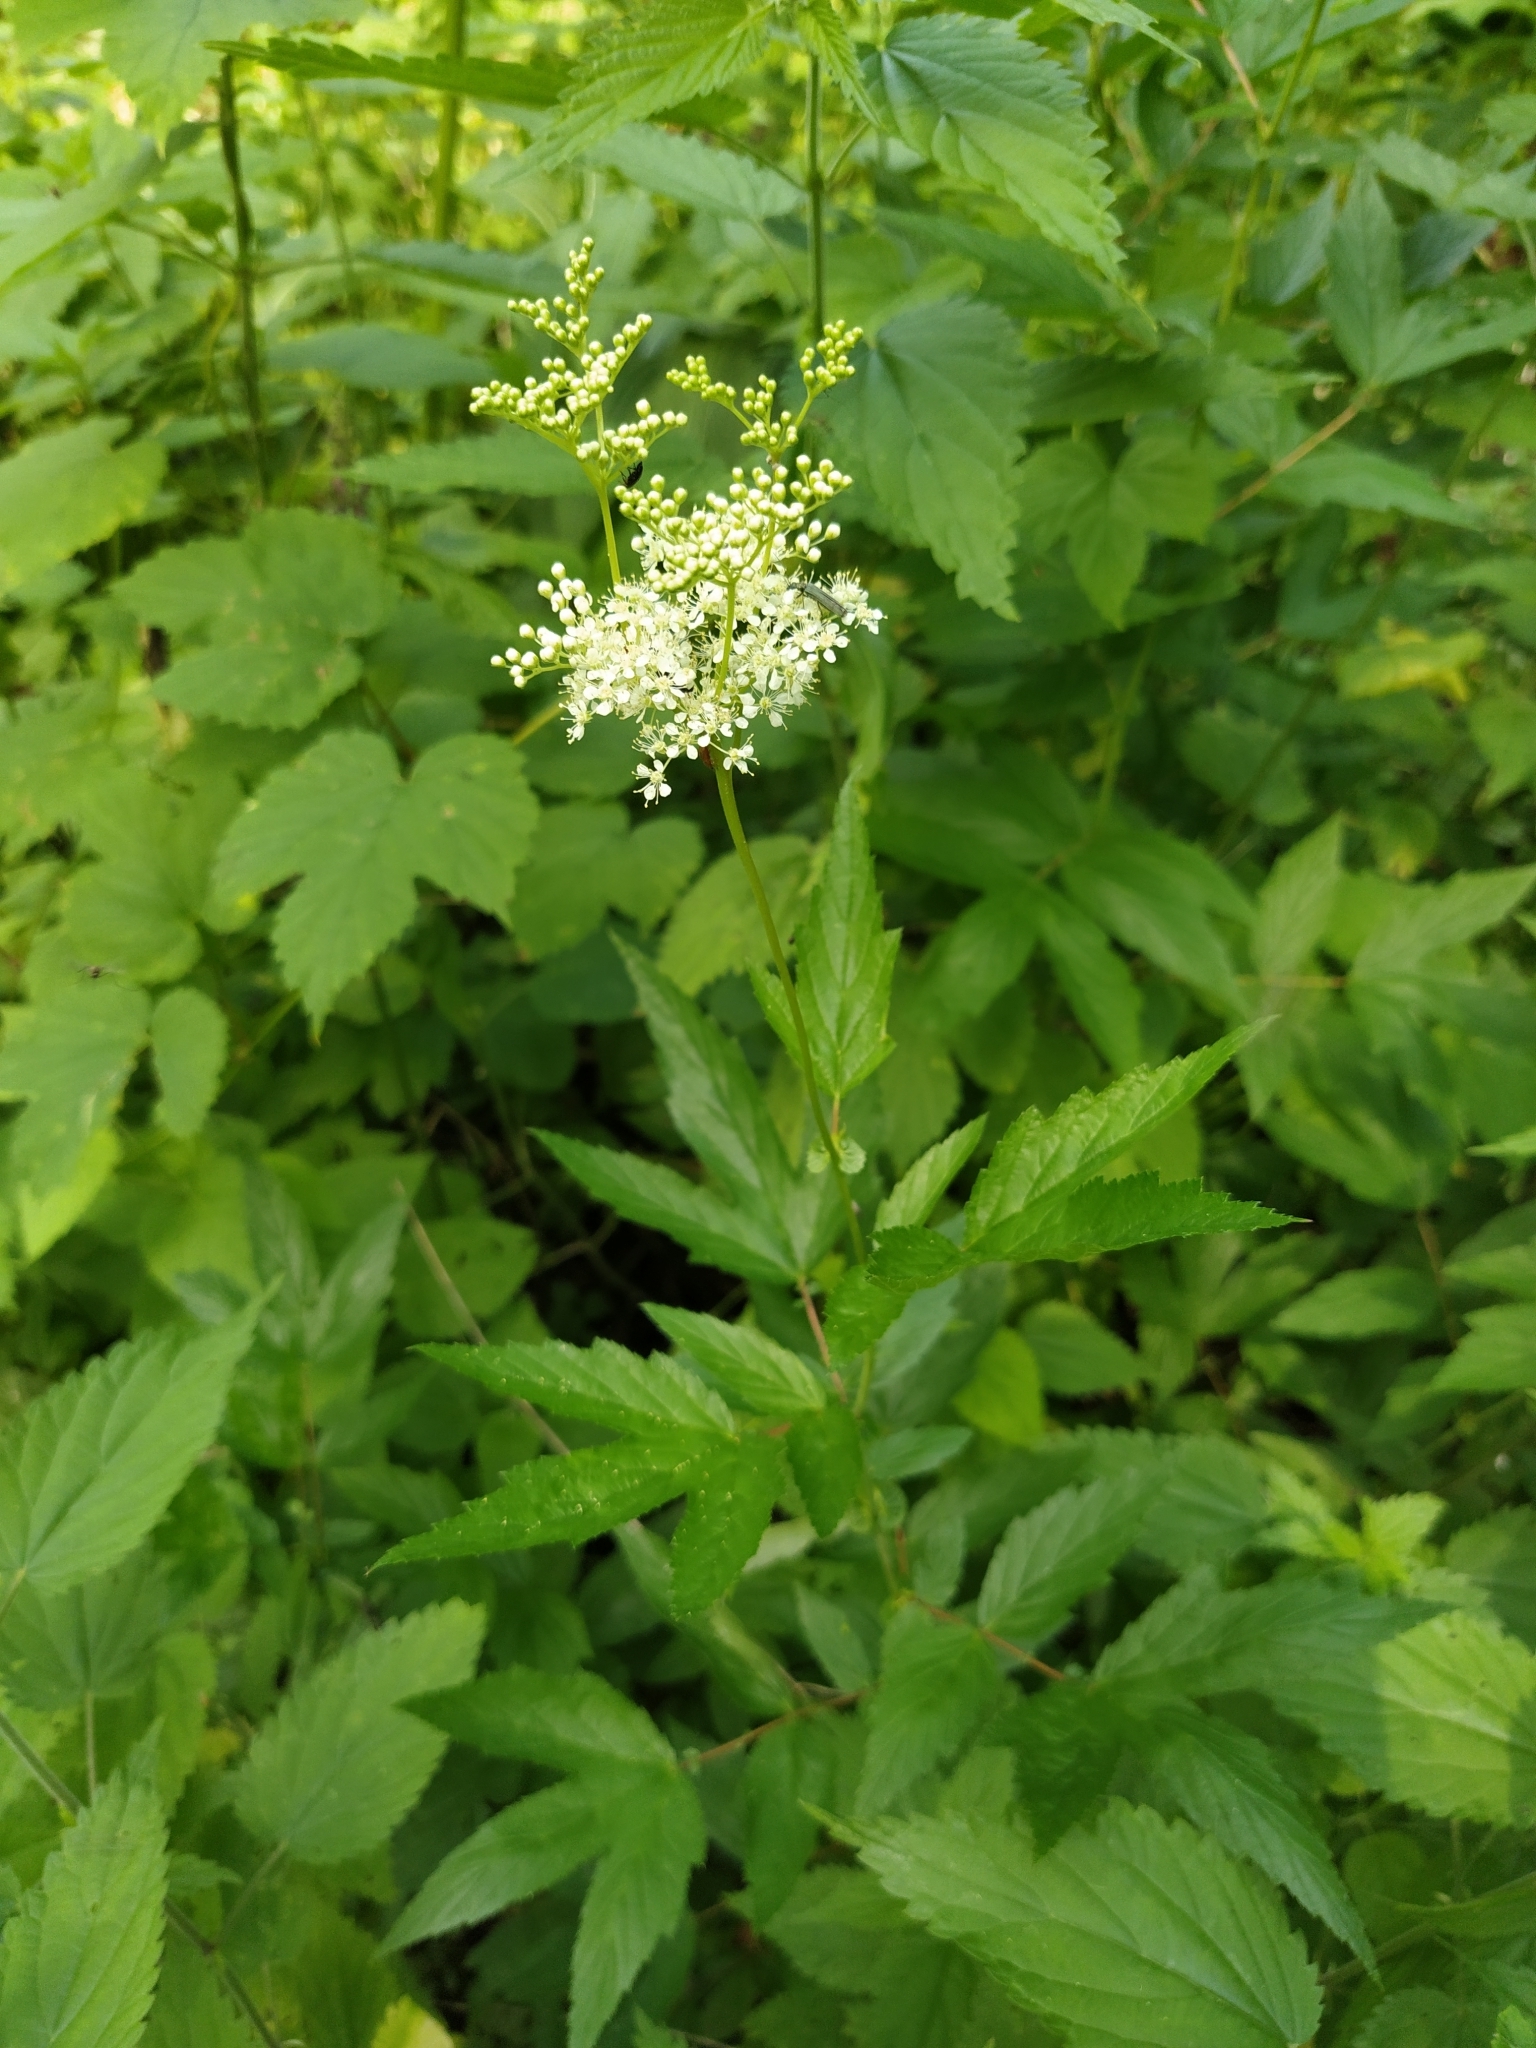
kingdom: Plantae
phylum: Tracheophyta
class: Magnoliopsida
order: Rosales
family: Rosaceae
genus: Filipendula
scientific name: Filipendula ulmaria
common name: Meadowsweet
